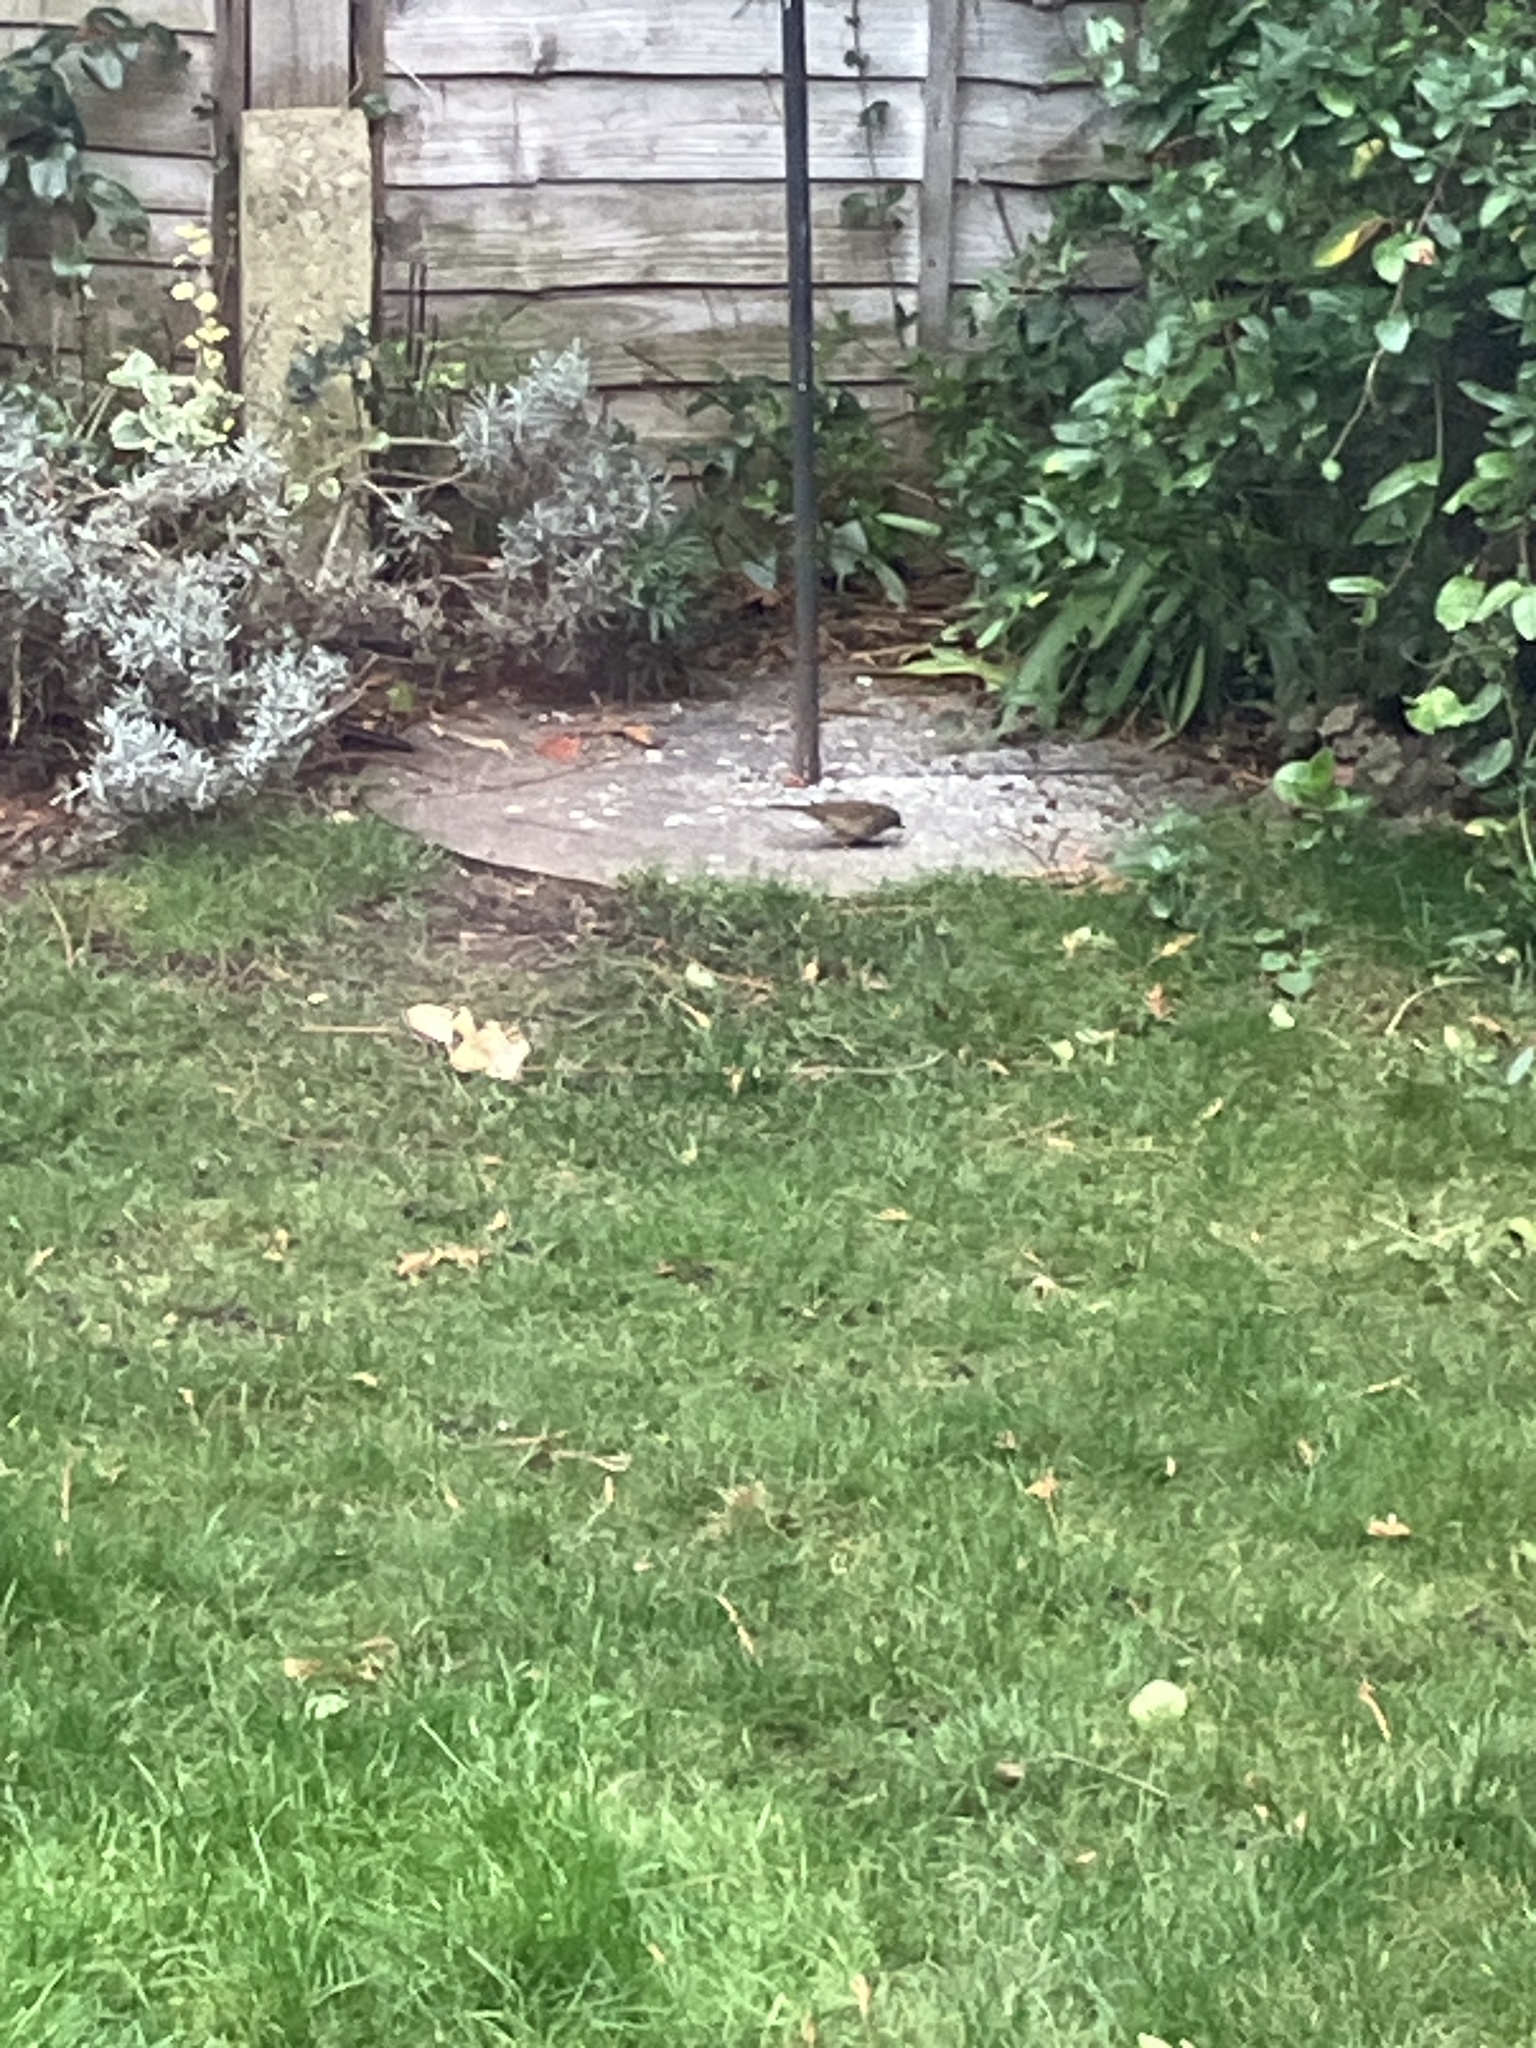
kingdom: Animalia
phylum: Chordata
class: Aves
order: Passeriformes
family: Prunellidae
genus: Prunella
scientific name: Prunella modularis
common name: Dunnock
